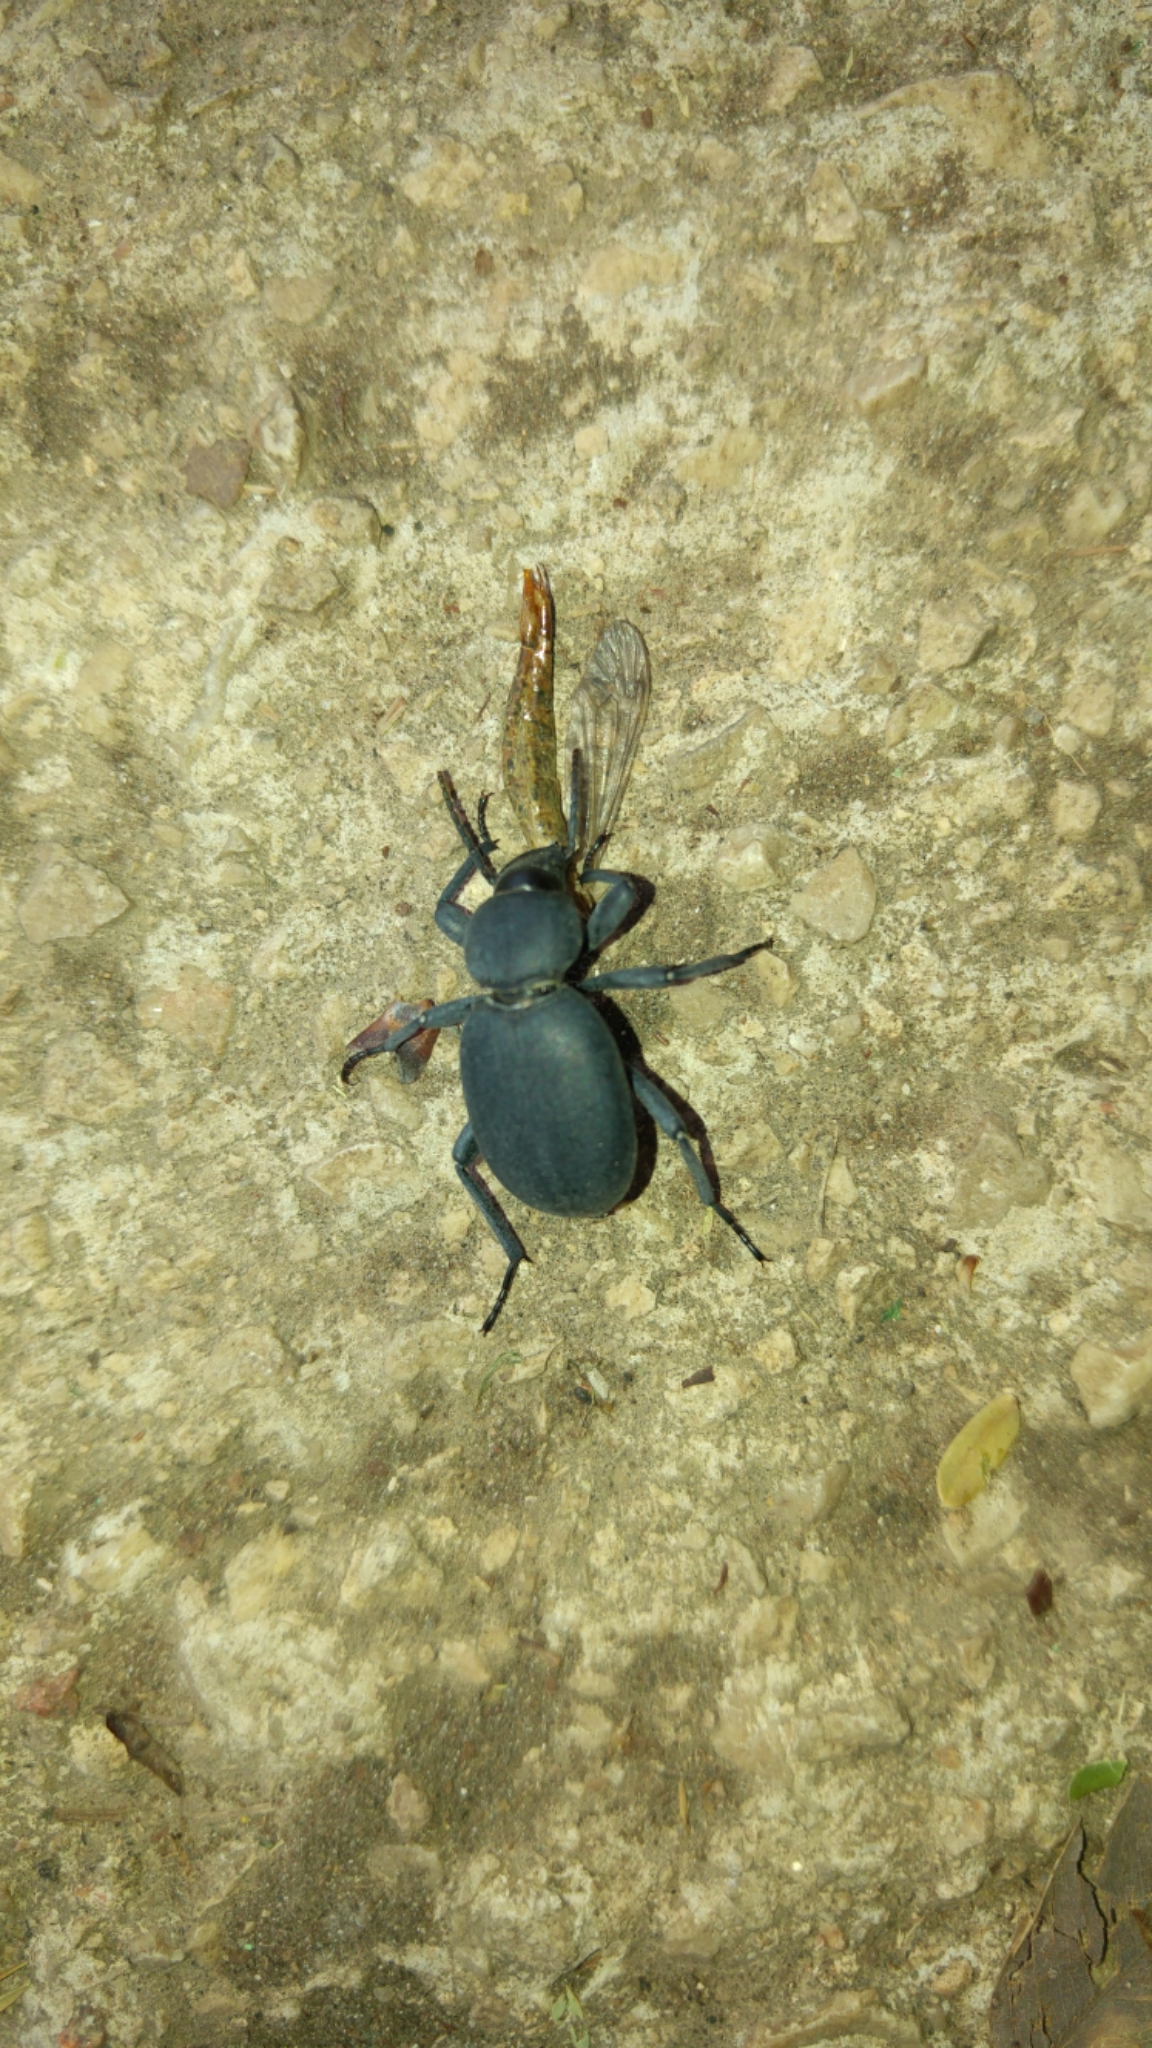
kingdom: Animalia
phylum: Arthropoda
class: Insecta
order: Coleoptera
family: Tenebrionidae
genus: Pimelia
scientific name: Pimelia bajula
